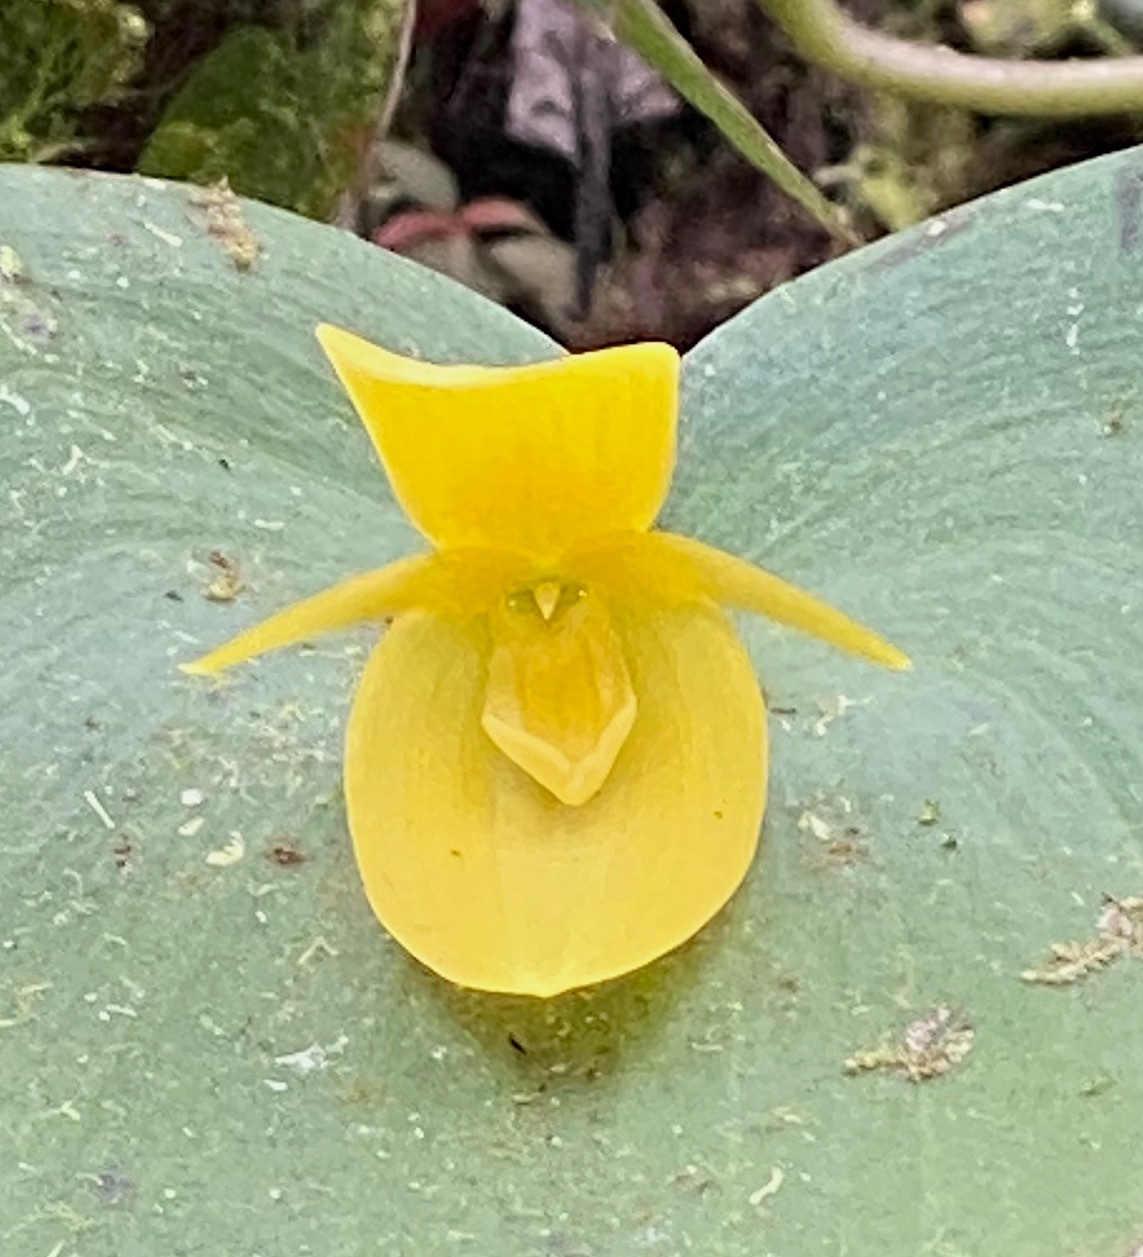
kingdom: Plantae
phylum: Tracheophyta
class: Liliopsida
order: Asparagales
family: Orchidaceae
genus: Pleurothallis
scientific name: Pleurothallis titan
